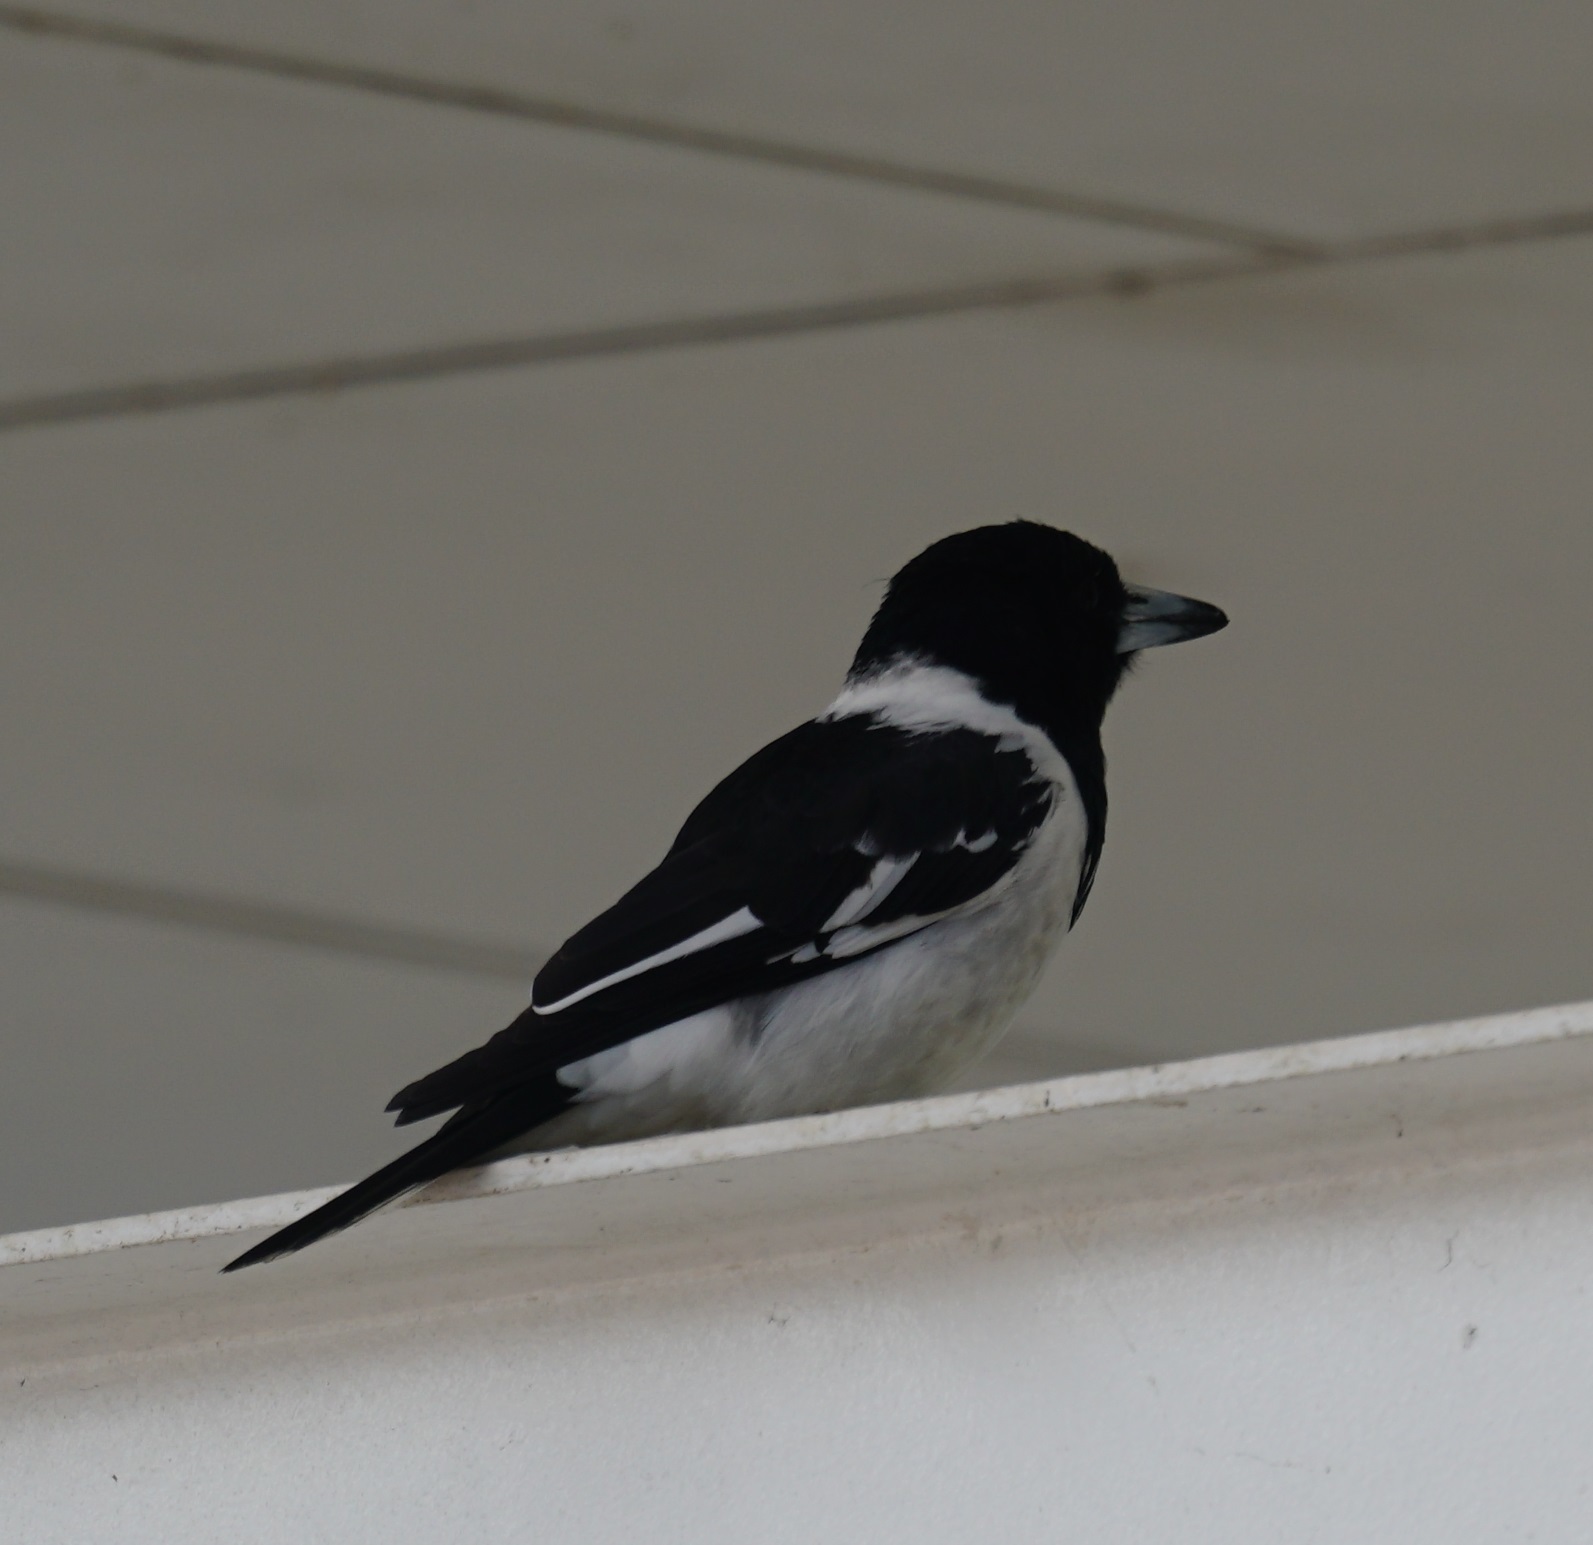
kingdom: Animalia
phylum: Chordata
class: Aves
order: Passeriformes
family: Cracticidae
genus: Cracticus
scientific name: Cracticus nigrogularis
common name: Pied butcherbird
